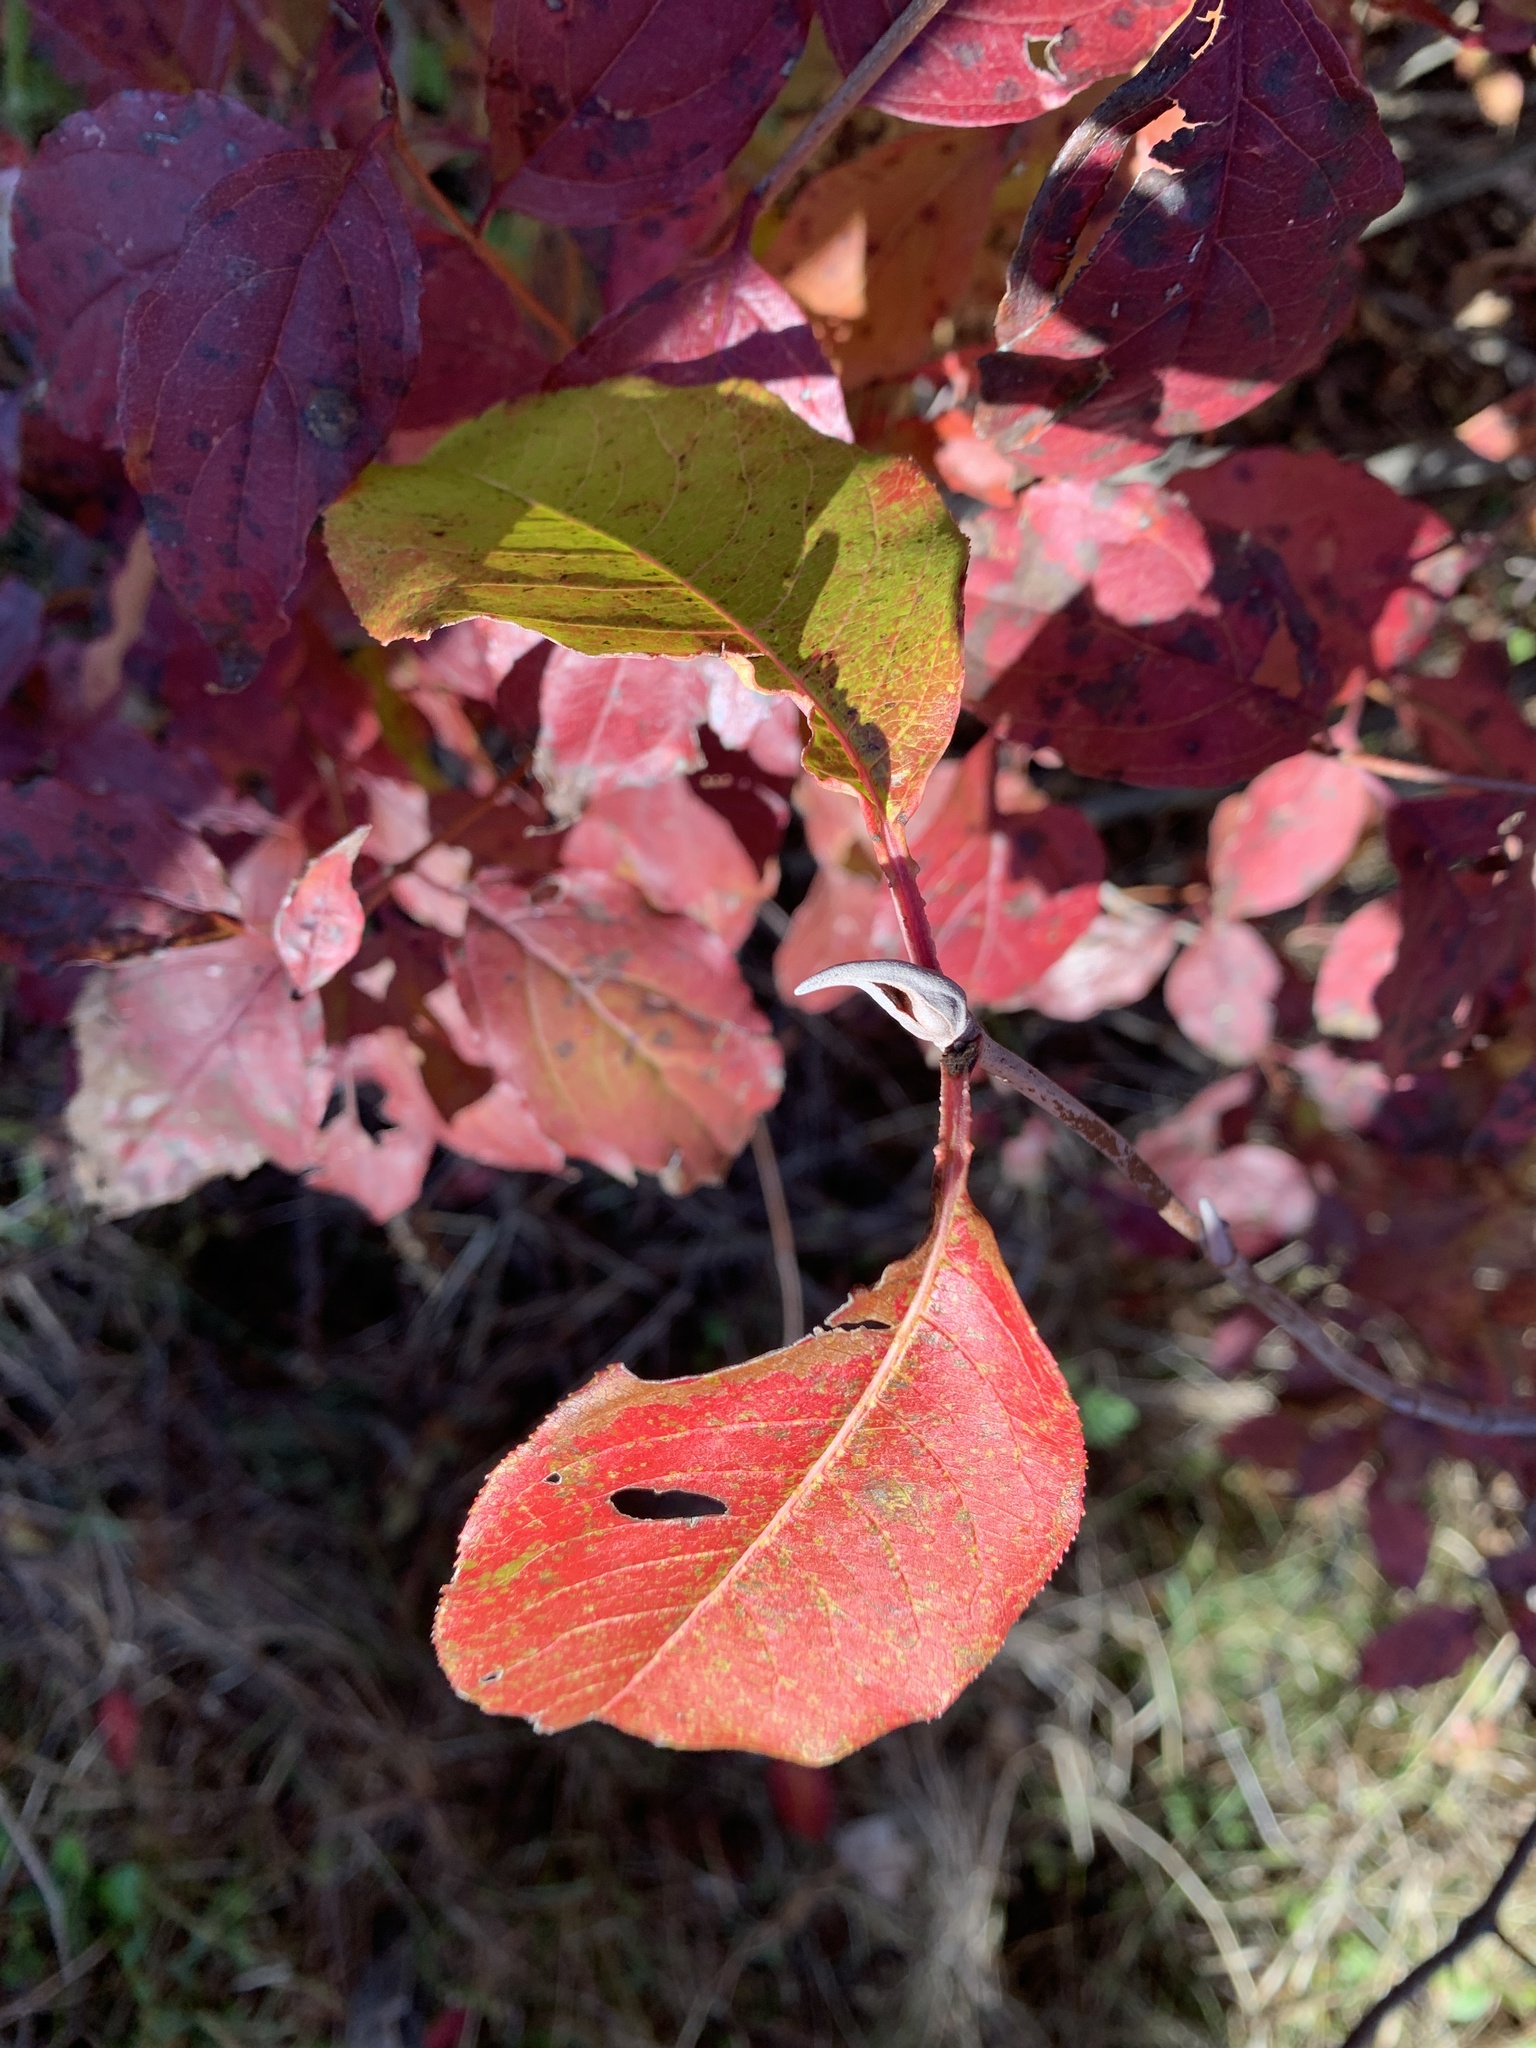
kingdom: Plantae
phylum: Tracheophyta
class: Magnoliopsida
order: Dipsacales
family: Viburnaceae
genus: Viburnum
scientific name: Viburnum lentago
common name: Black haw
